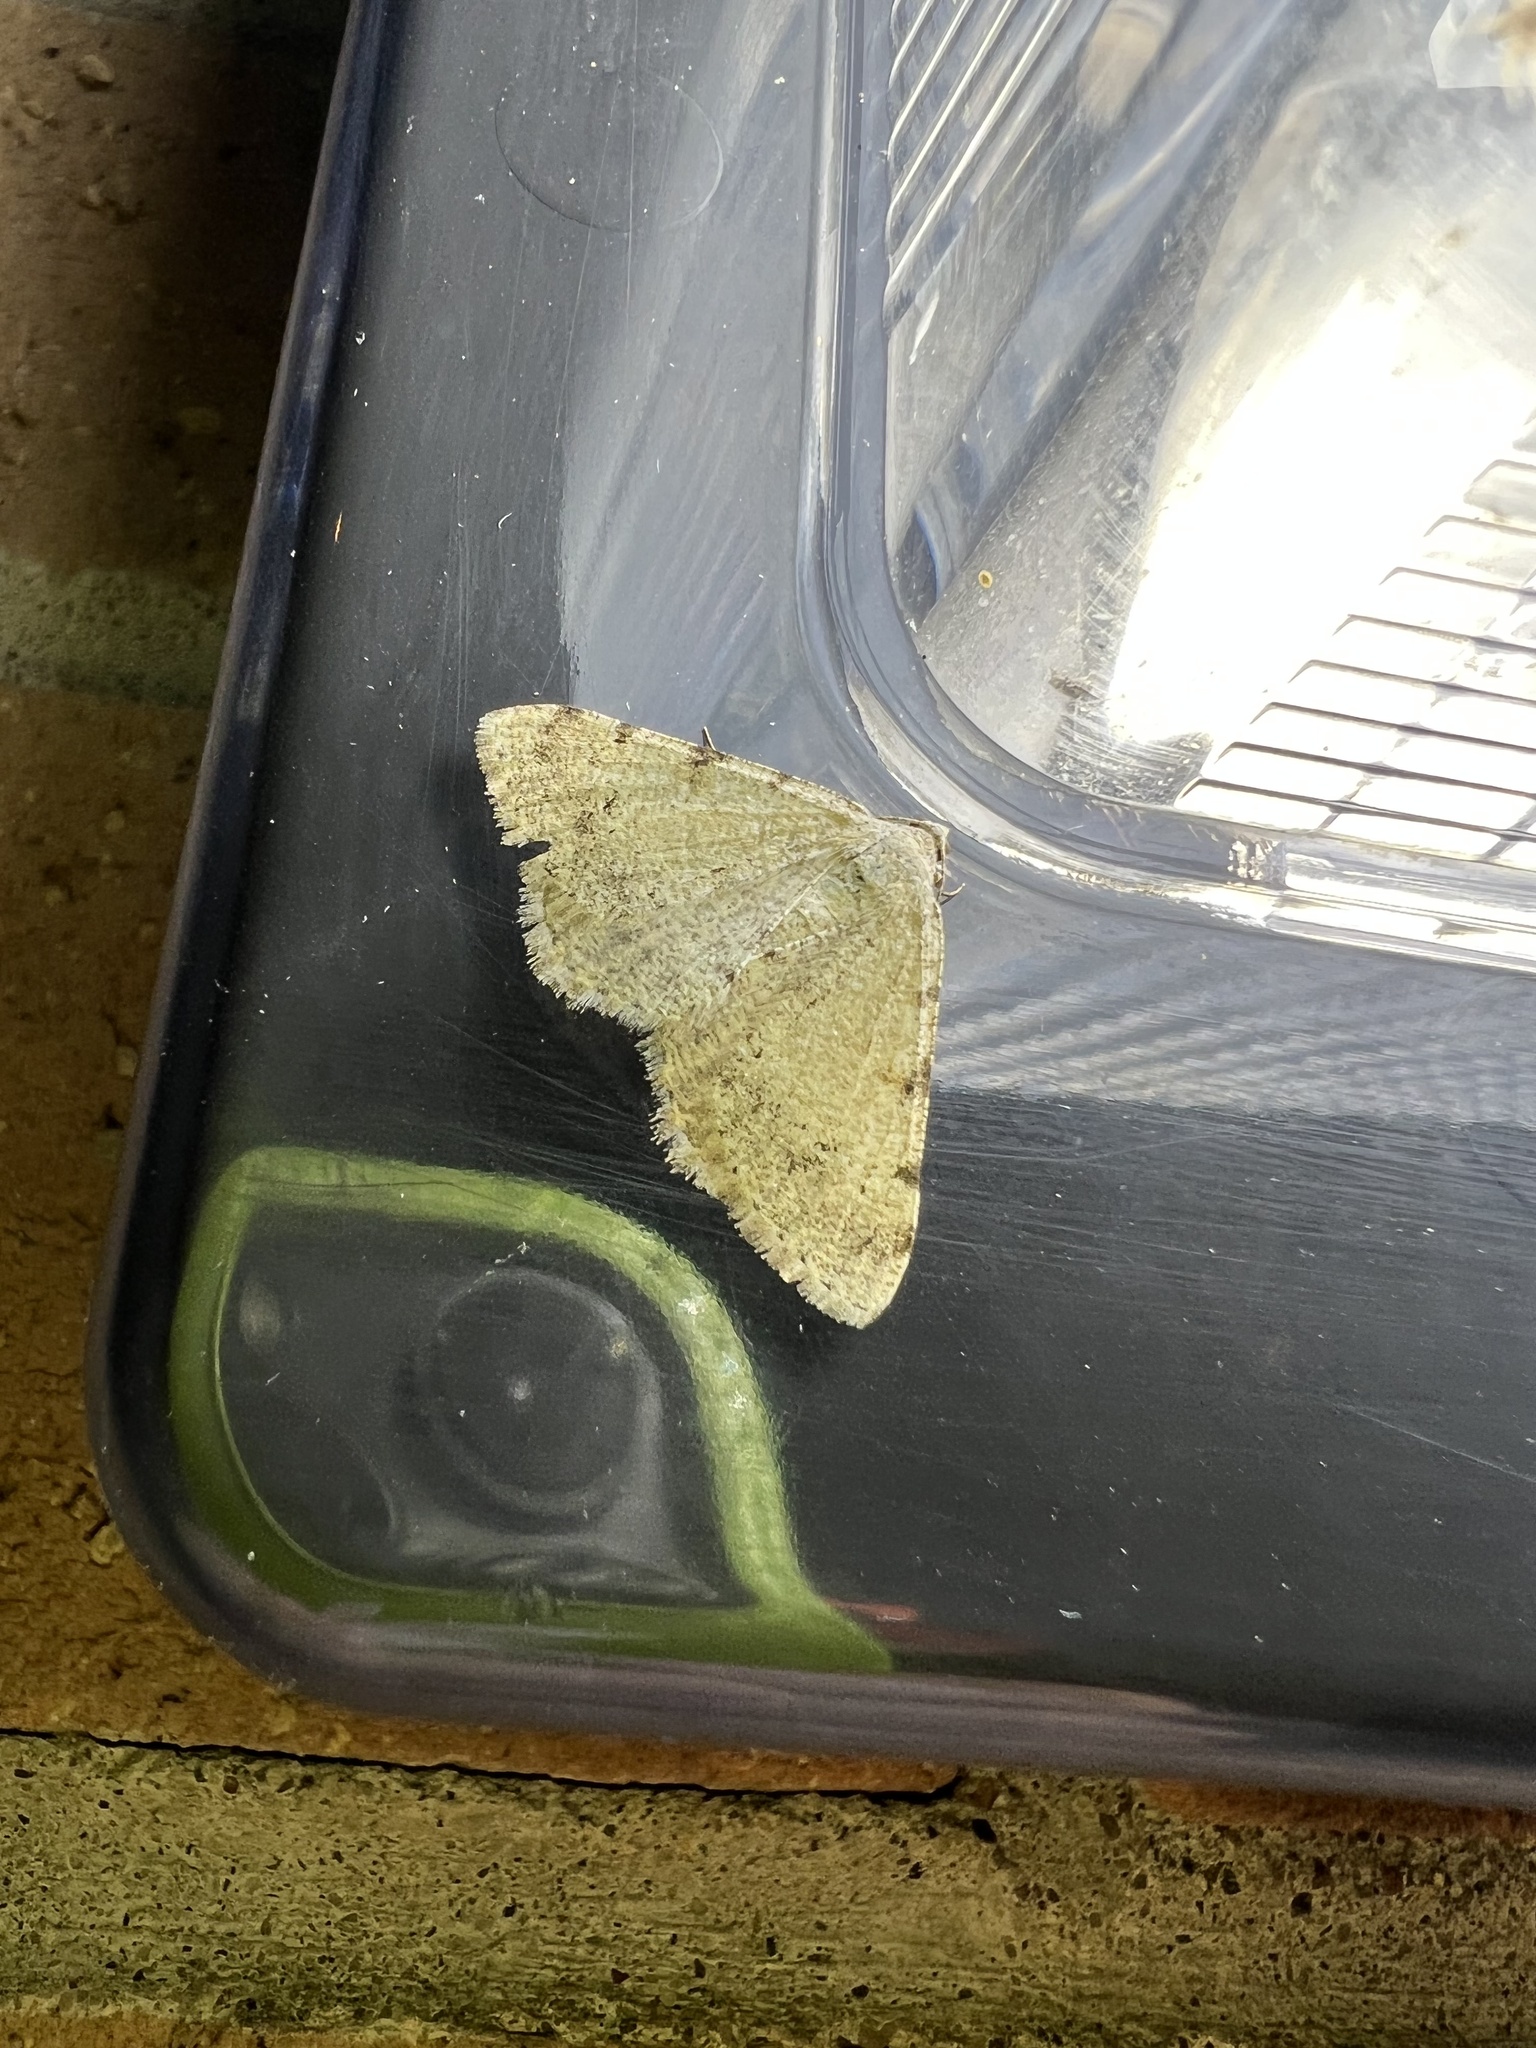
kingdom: Animalia
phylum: Arthropoda
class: Insecta
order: Lepidoptera
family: Geometridae
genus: Digrammia
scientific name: Digrammia colorata
